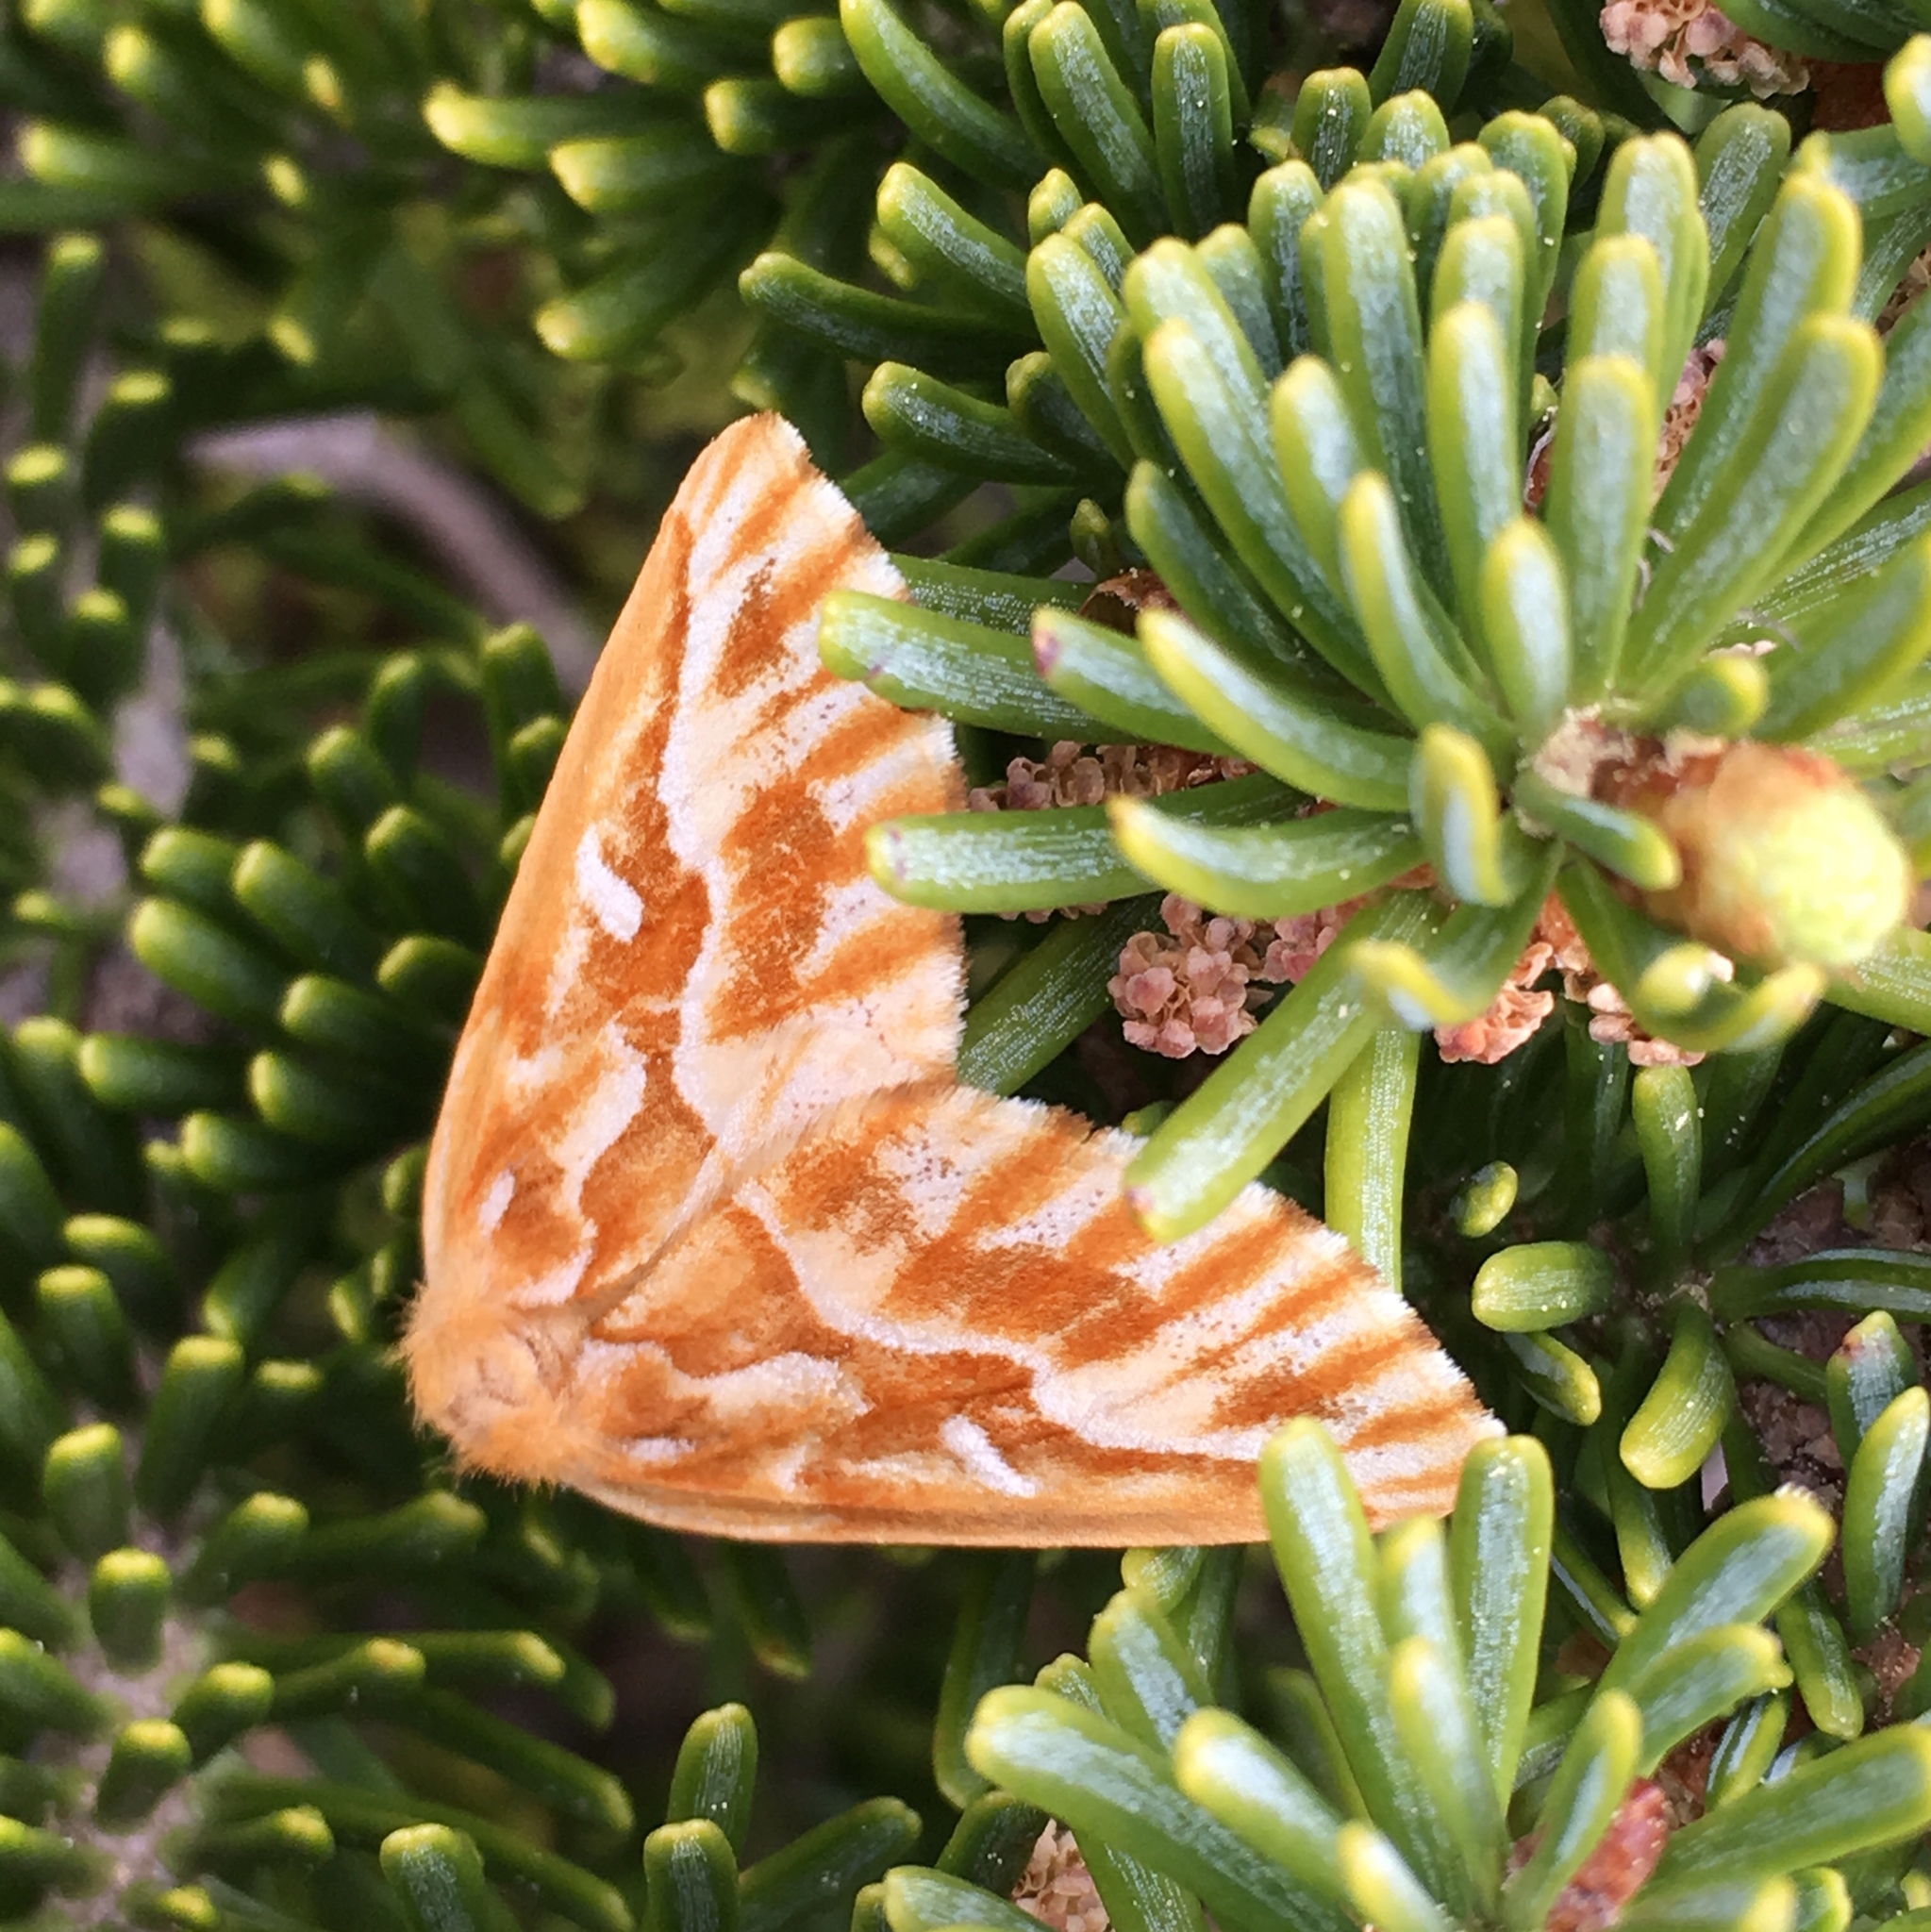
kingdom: Animalia
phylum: Arthropoda
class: Insecta
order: Lepidoptera
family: Geometridae
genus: Caripeta
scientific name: Caripeta piniata
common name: Northern pine looper moth
